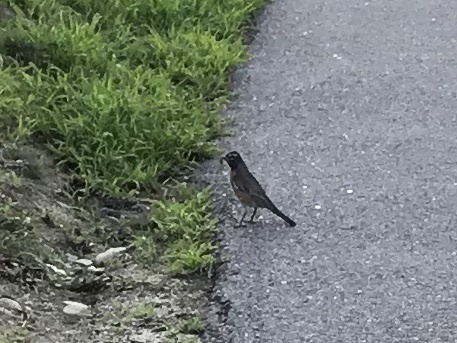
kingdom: Animalia
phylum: Chordata
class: Aves
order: Passeriformes
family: Turdidae
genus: Turdus
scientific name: Turdus migratorius
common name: American robin
